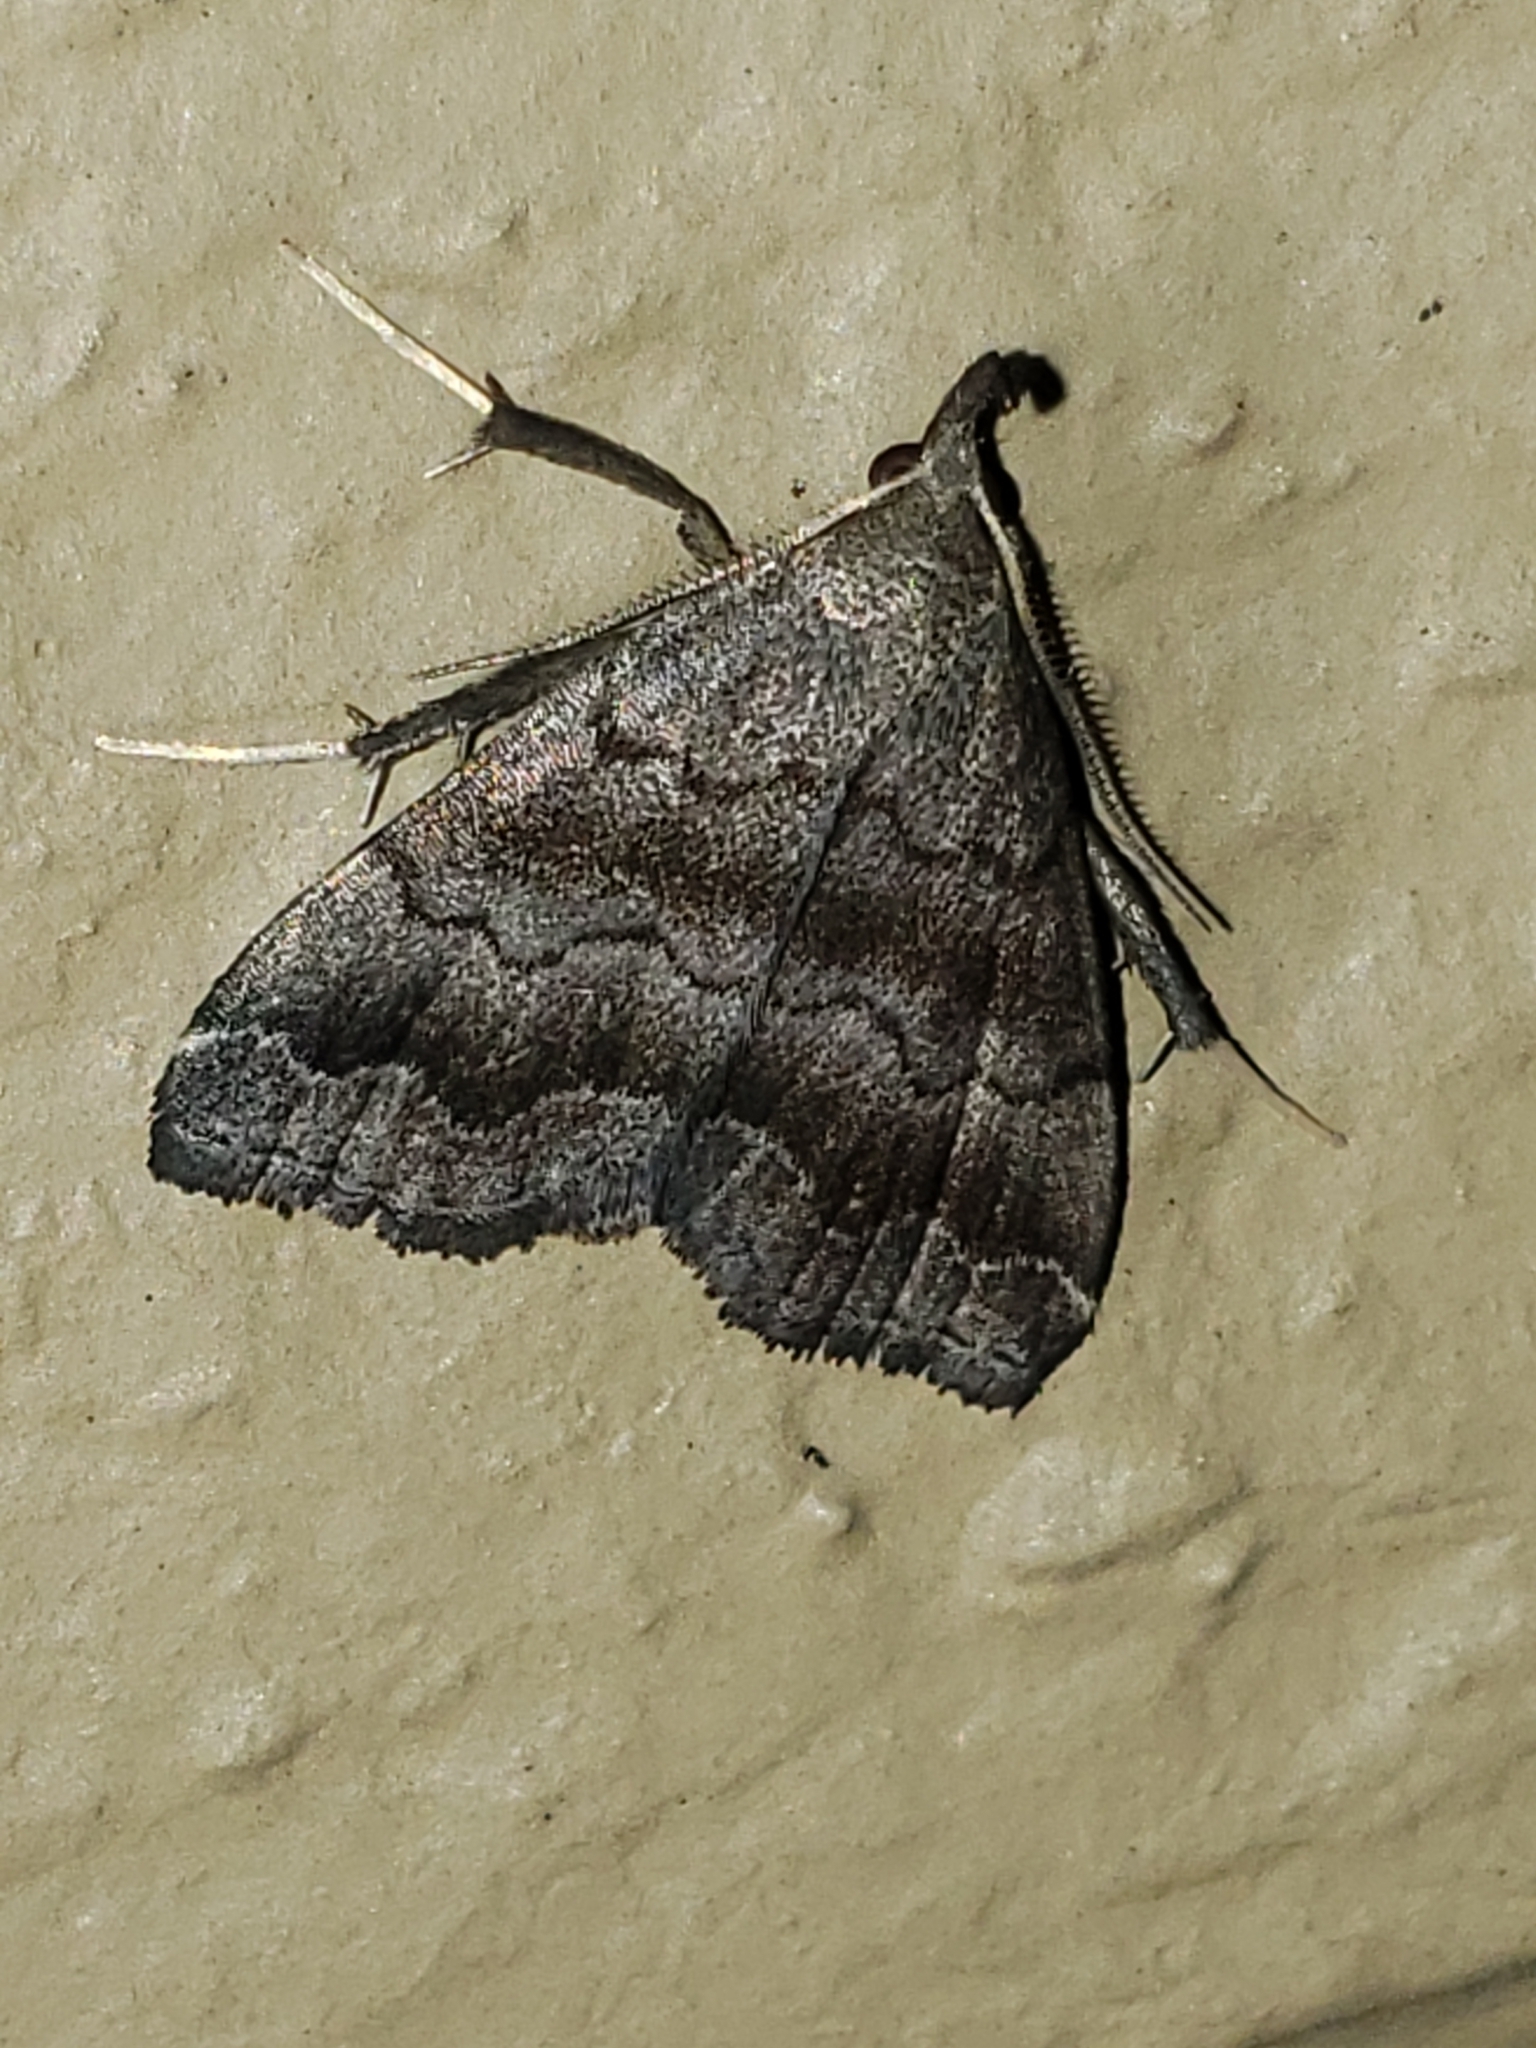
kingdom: Animalia
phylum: Arthropoda
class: Insecta
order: Lepidoptera
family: Erebidae
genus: Phalaenostola
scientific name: Phalaenostola larentioides
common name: Black-banded owlet
